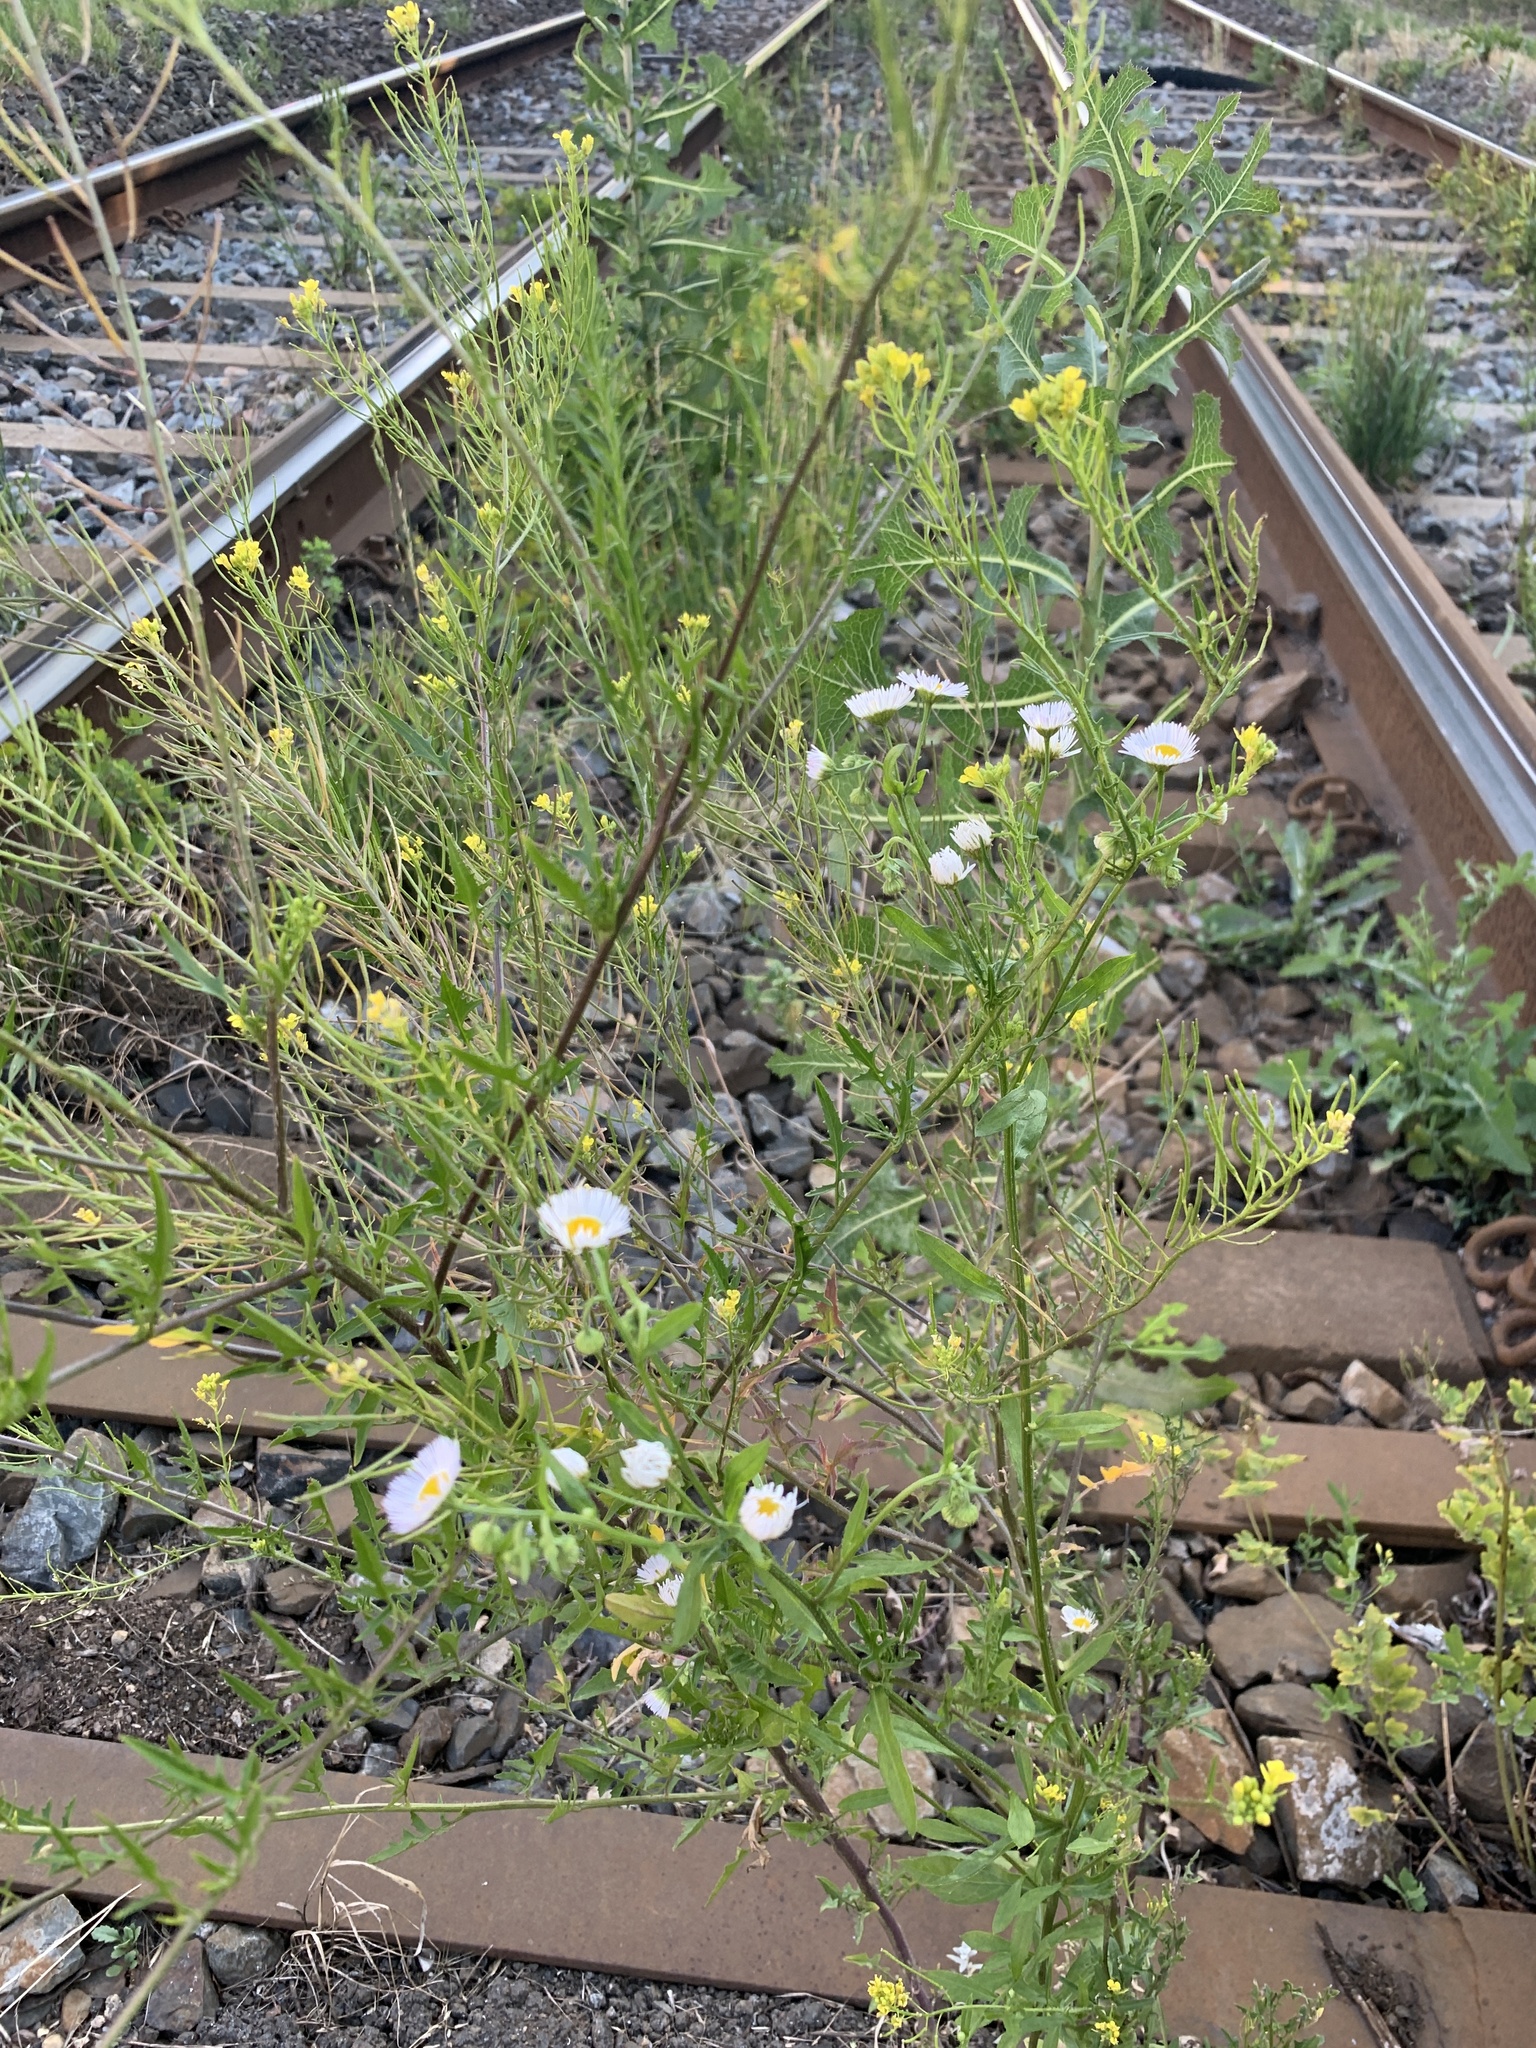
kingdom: Plantae
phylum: Tracheophyta
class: Magnoliopsida
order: Asterales
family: Asteraceae
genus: Erigeron
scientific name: Erigeron annuus
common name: Tall fleabane
